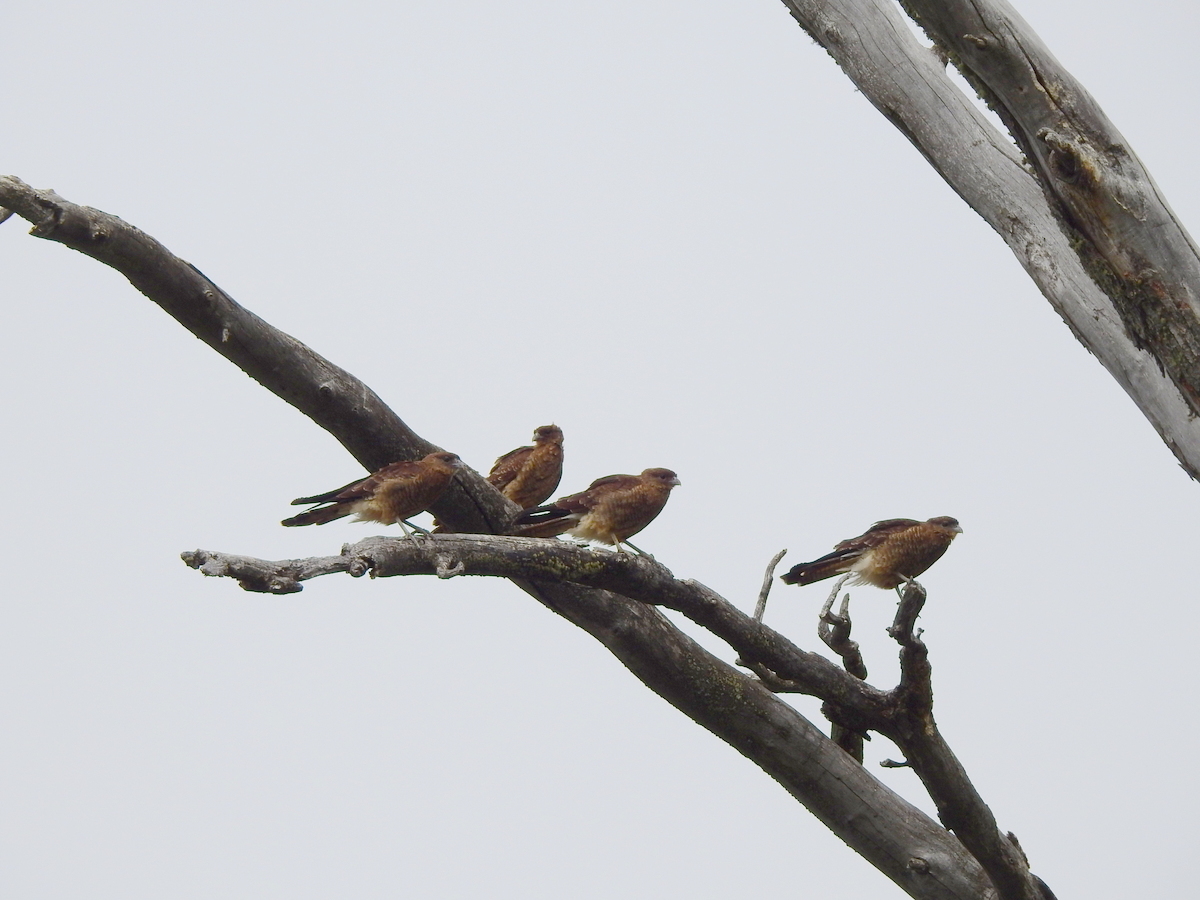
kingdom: Animalia
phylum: Chordata
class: Aves
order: Falconiformes
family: Falconidae
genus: Daptrius
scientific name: Daptrius
